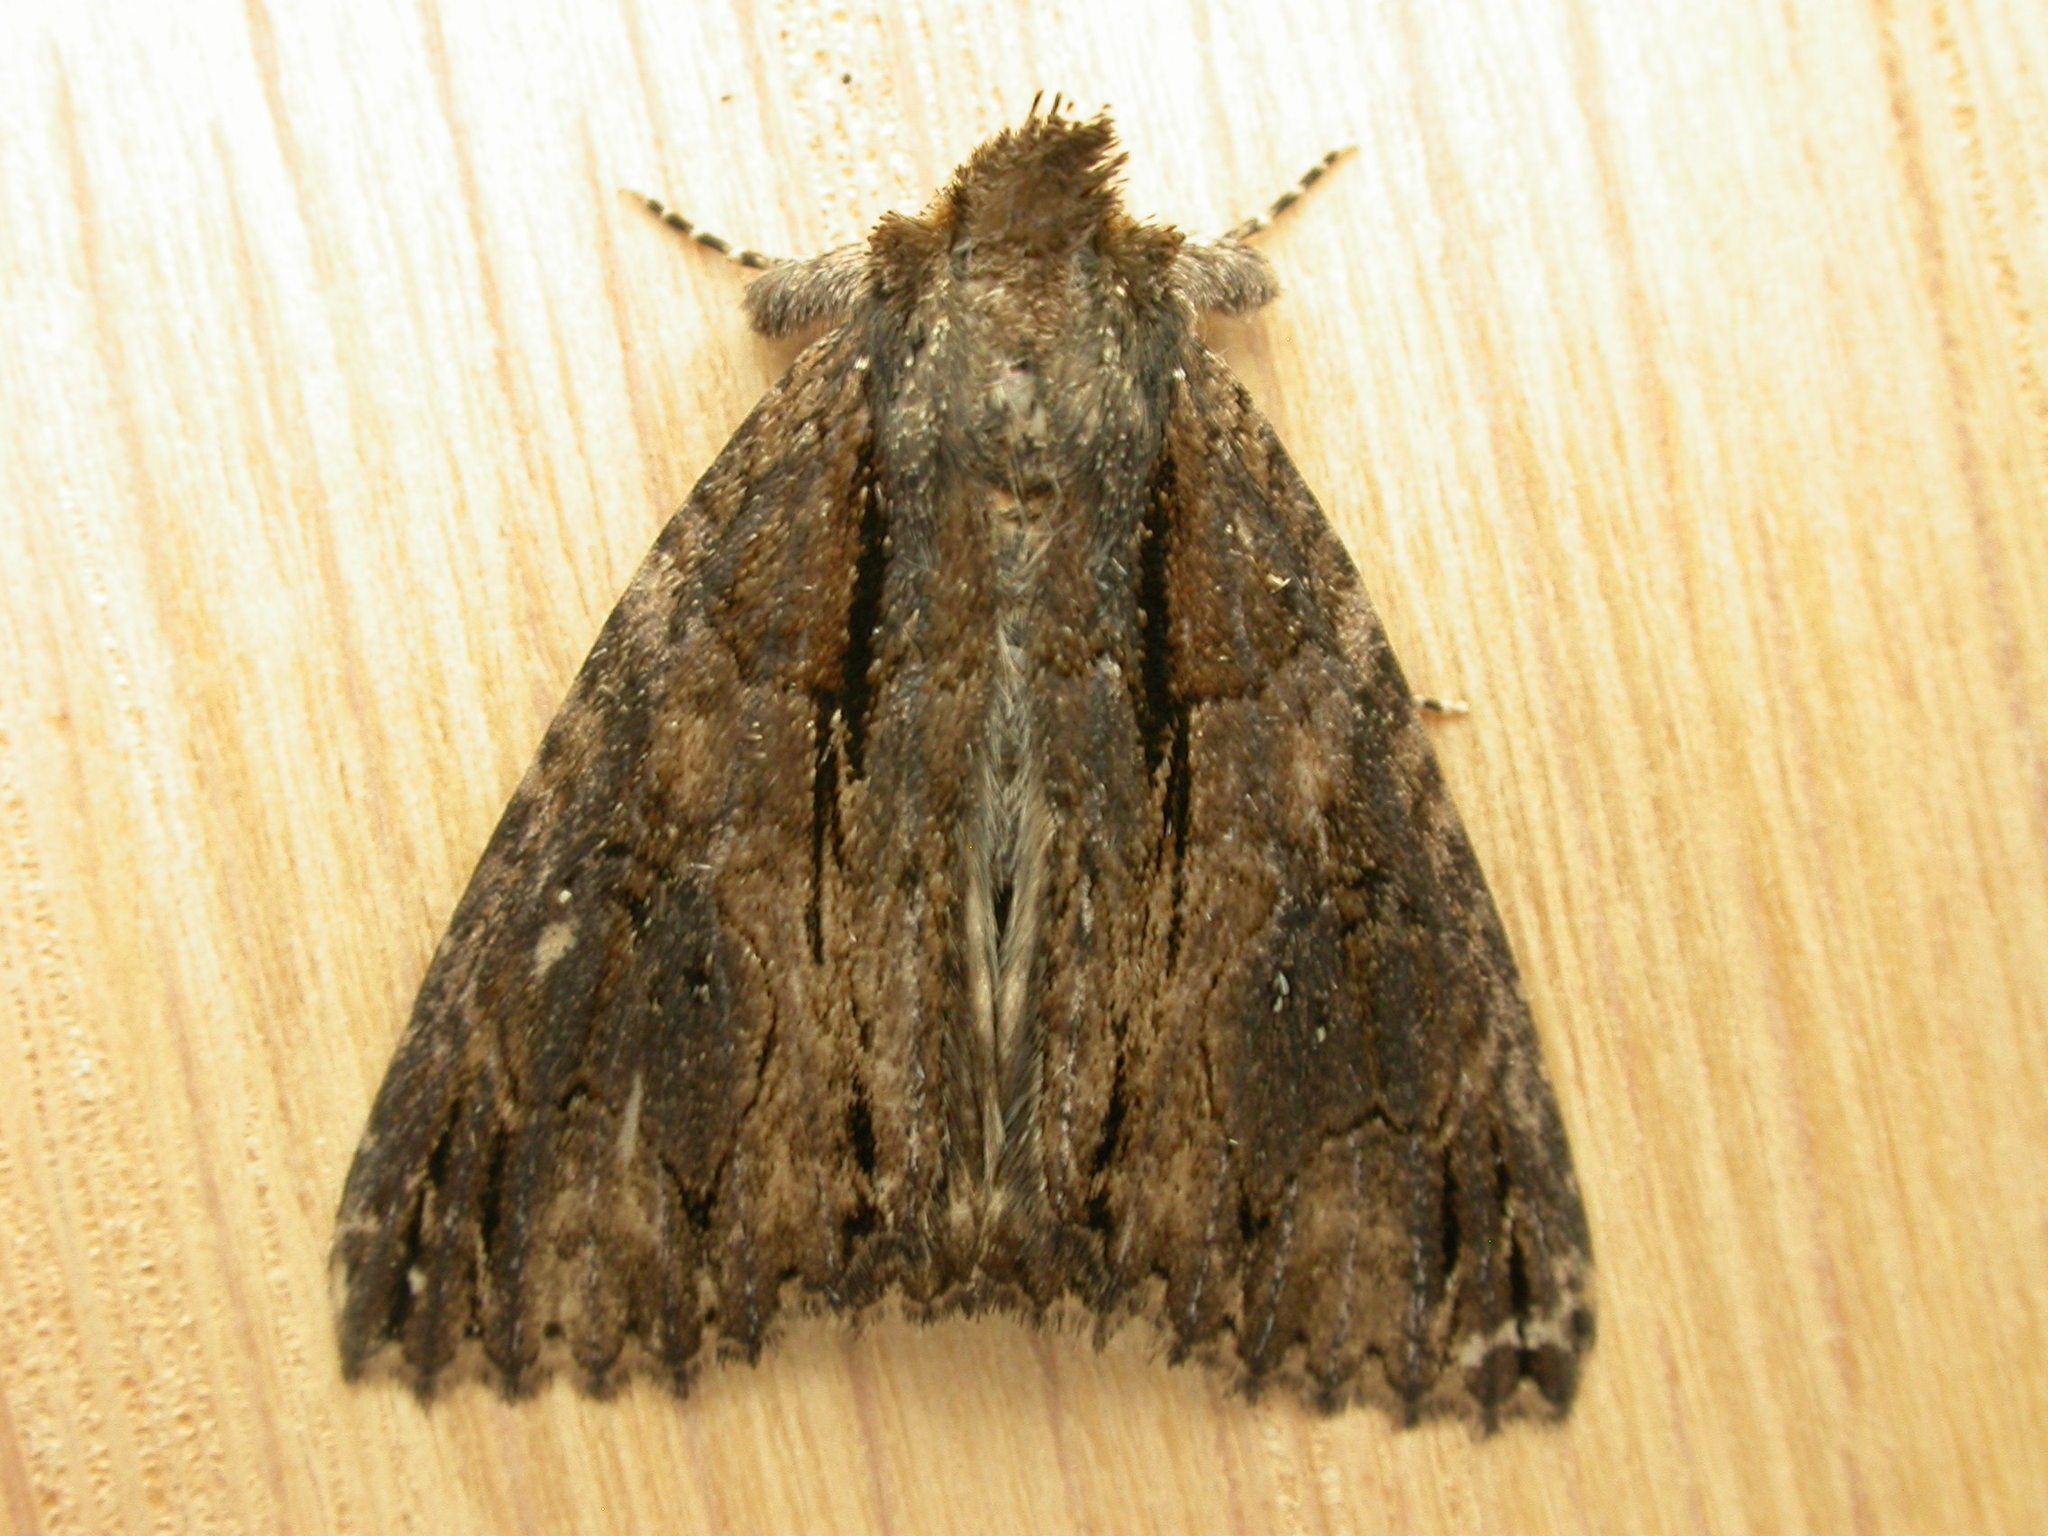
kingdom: Animalia
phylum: Arthropoda
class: Insecta
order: Lepidoptera
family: Erebidae
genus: Crioa
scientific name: Crioa hades
